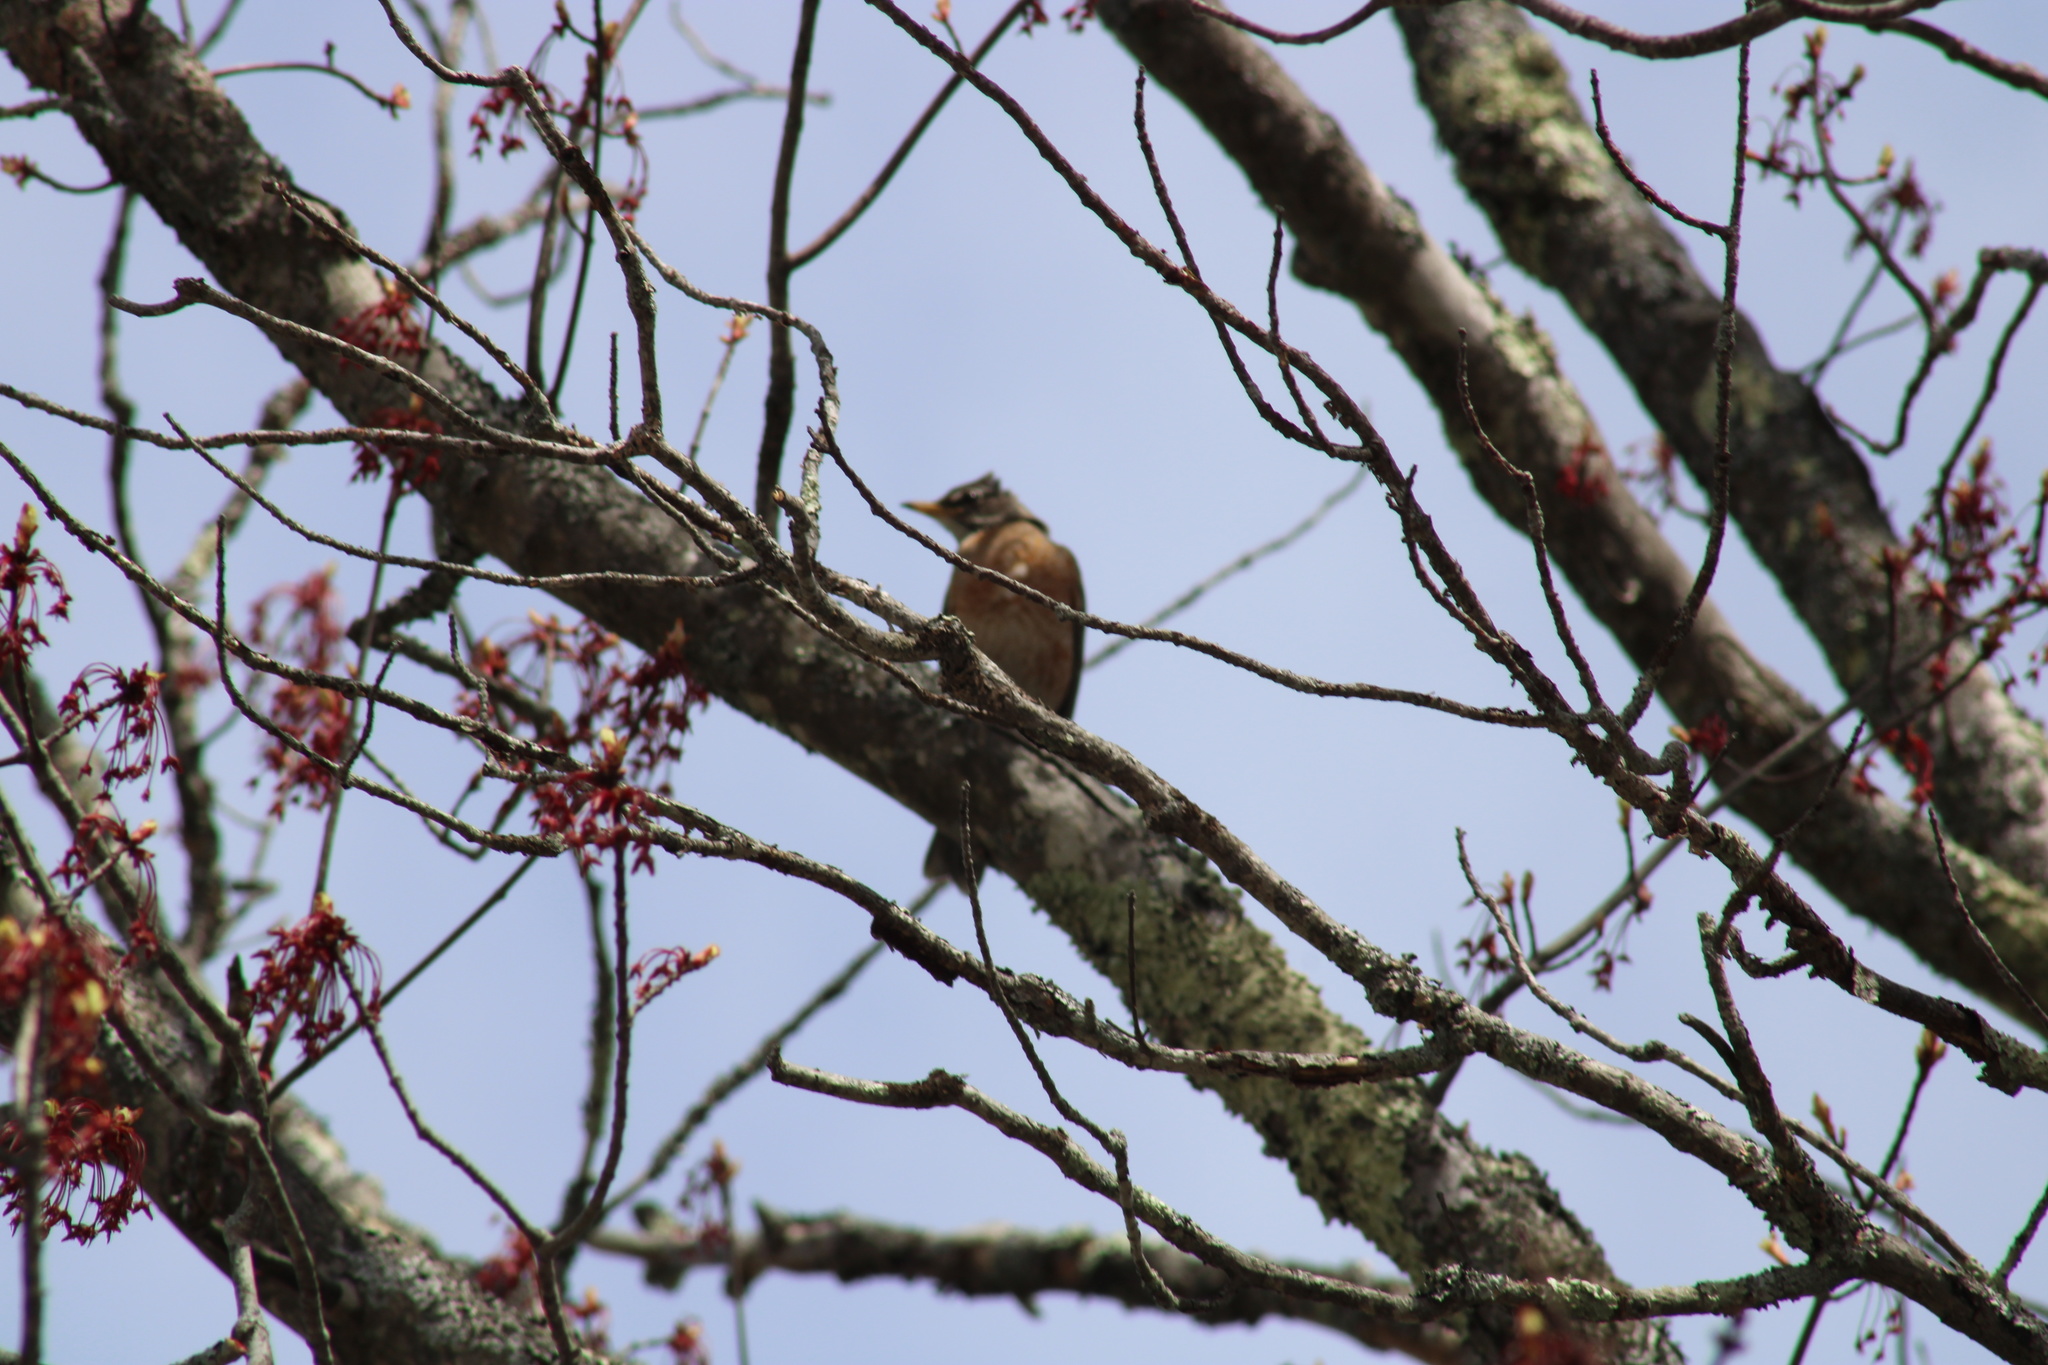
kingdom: Animalia
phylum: Chordata
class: Aves
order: Passeriformes
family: Turdidae
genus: Turdus
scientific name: Turdus migratorius
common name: American robin
